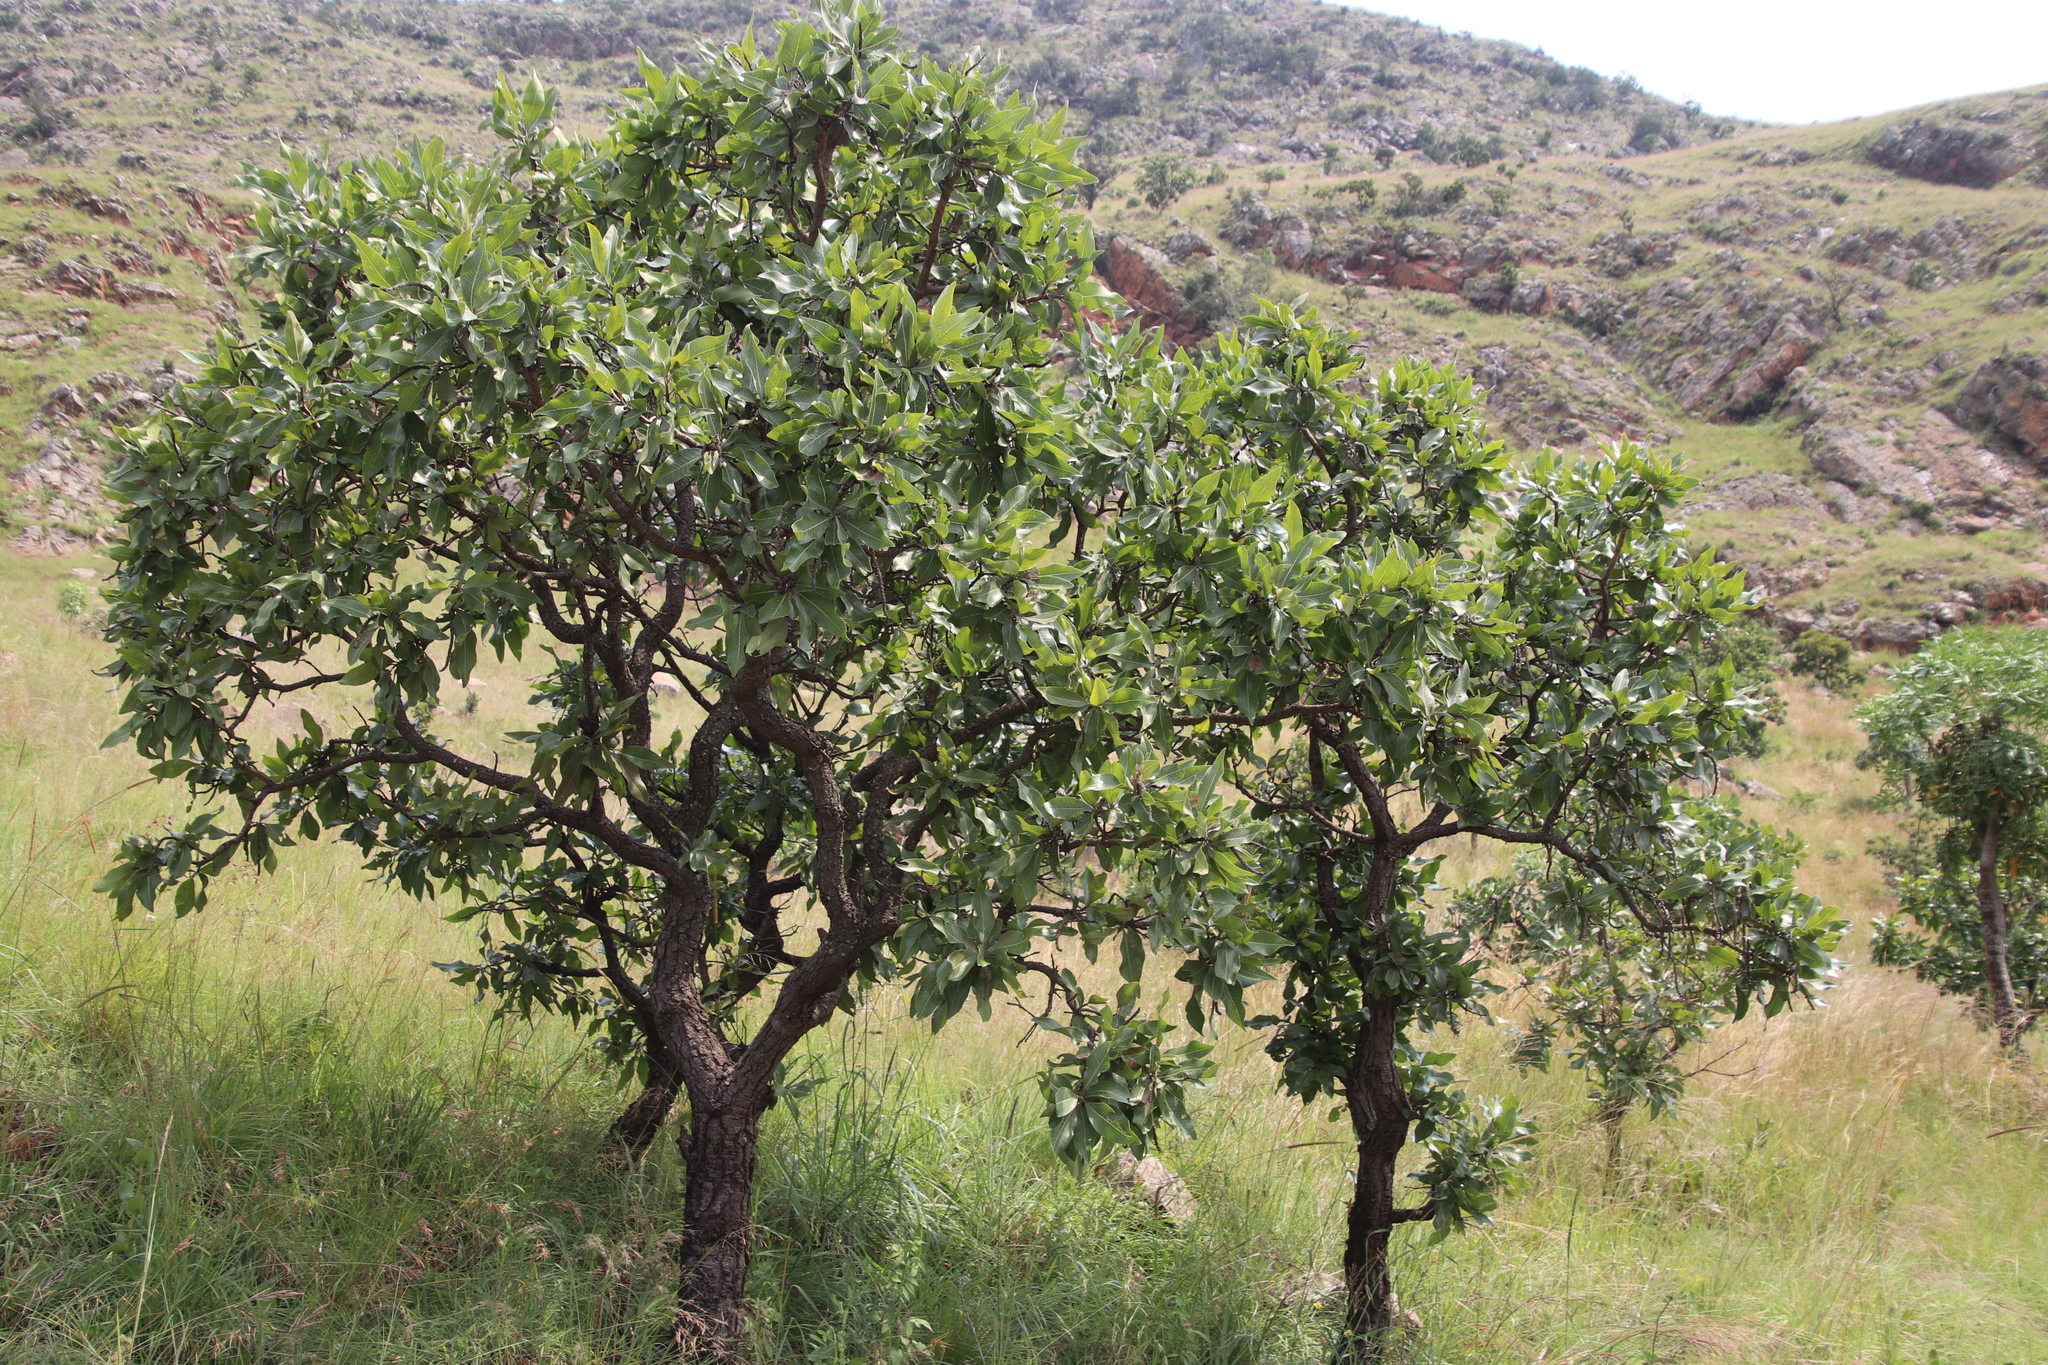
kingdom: Plantae
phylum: Tracheophyta
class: Magnoliopsida
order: Proteales
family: Proteaceae
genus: Faurea
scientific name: Faurea rochetiana
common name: Broad-leaved beech
